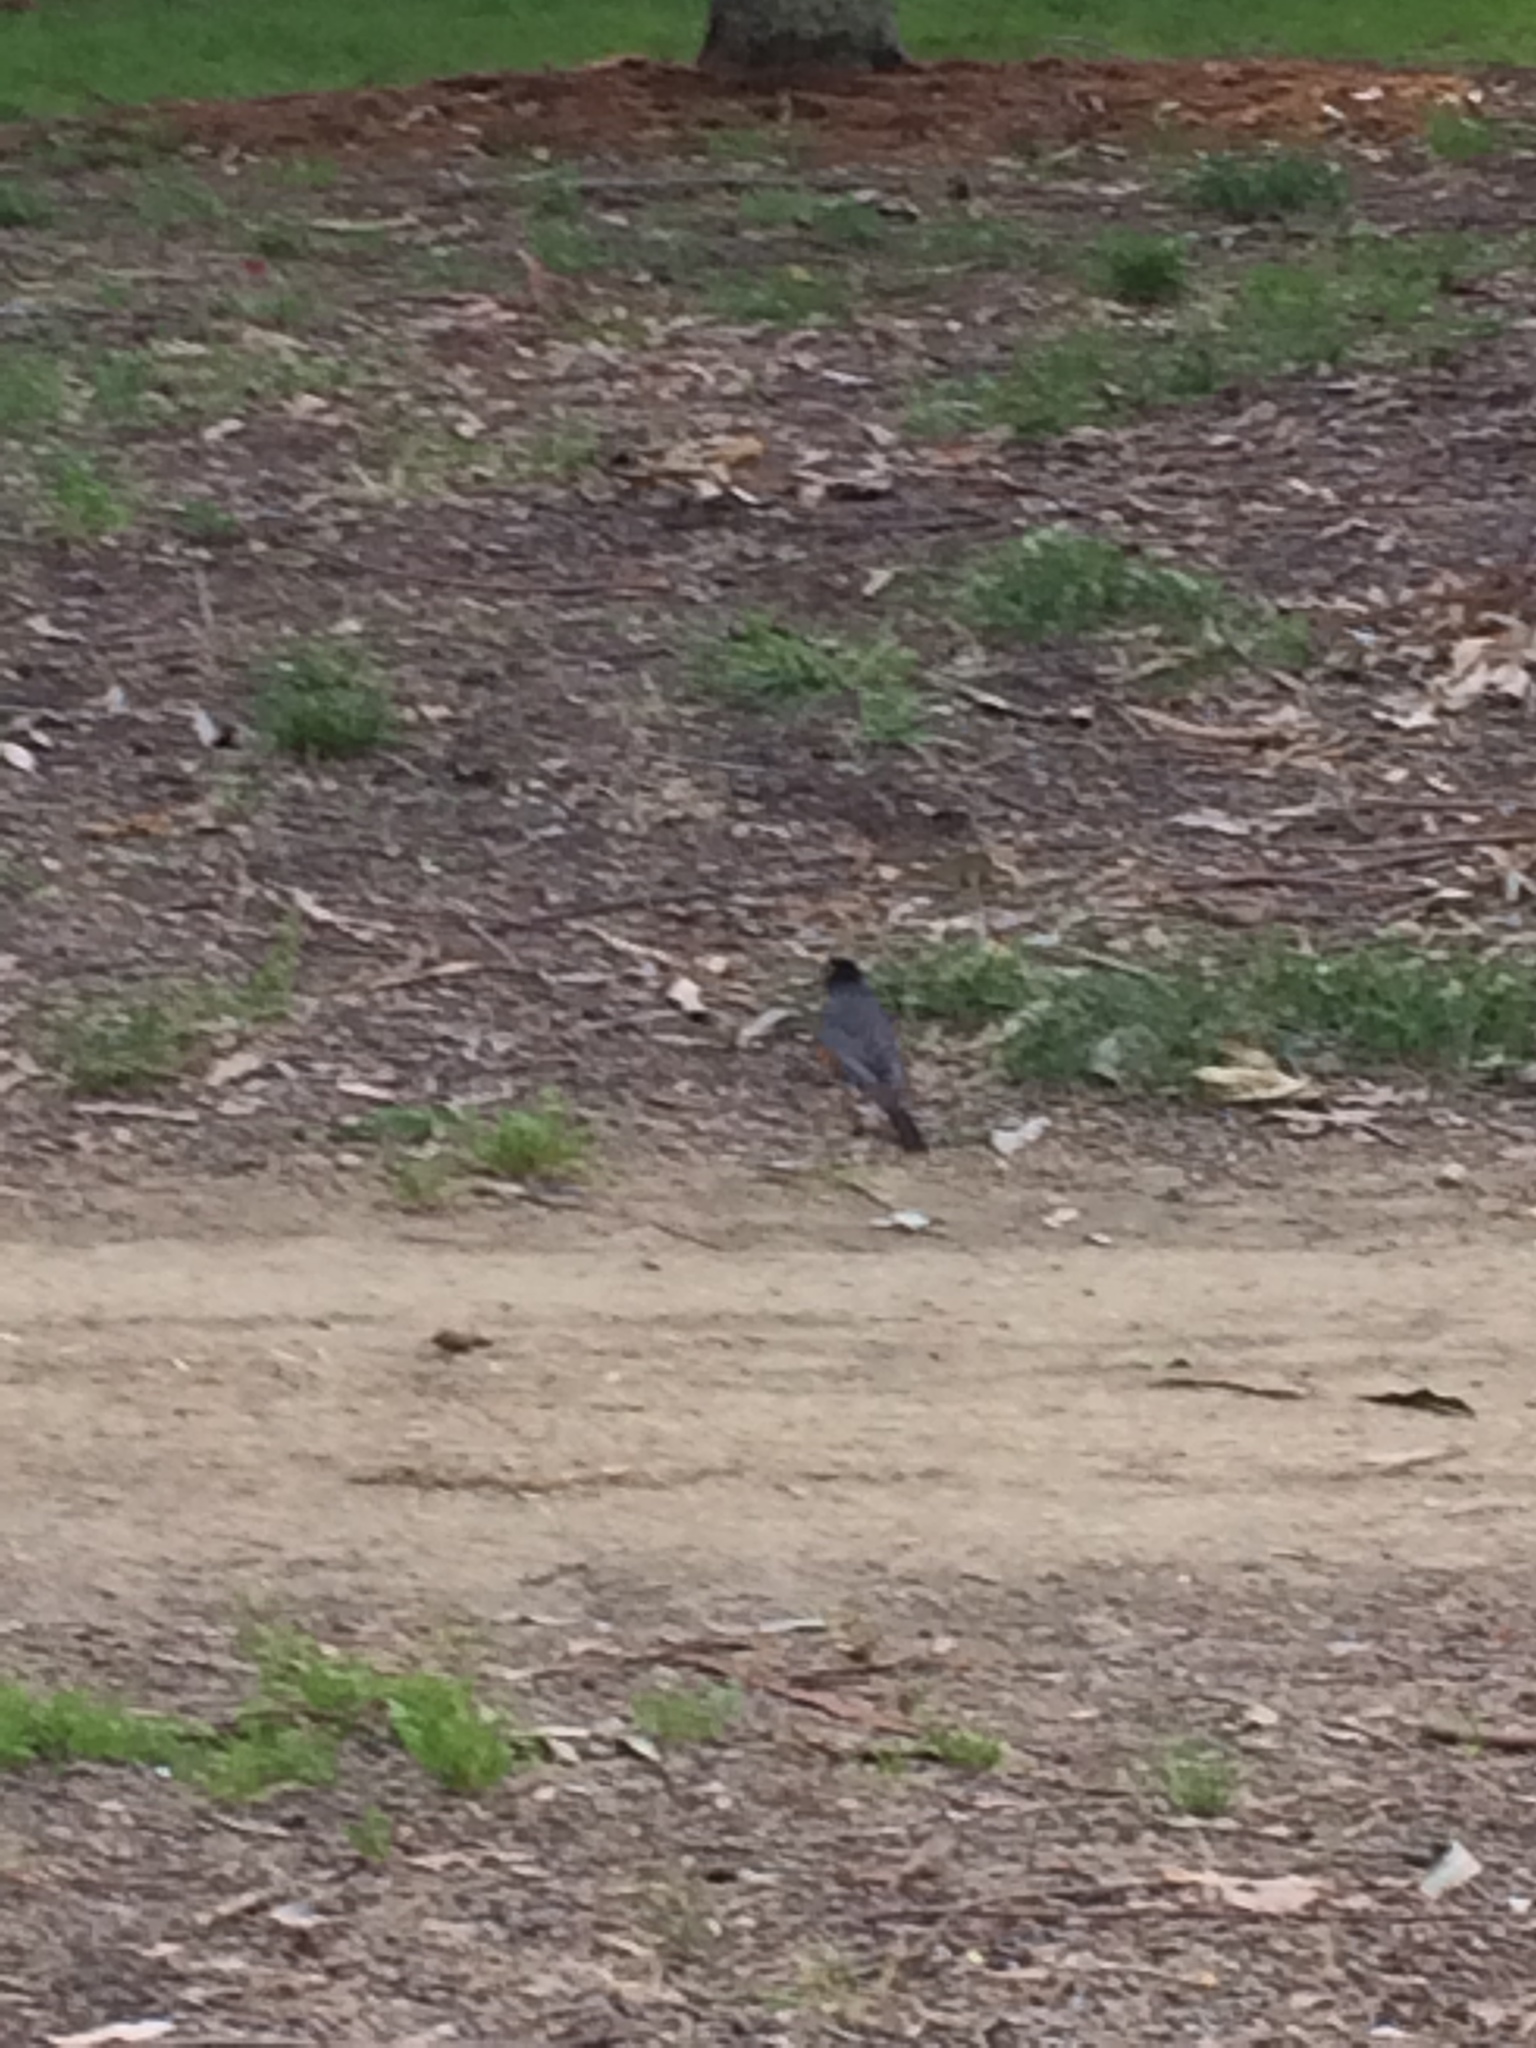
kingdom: Animalia
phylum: Chordata
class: Aves
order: Passeriformes
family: Turdidae
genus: Turdus
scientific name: Turdus migratorius
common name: American robin
